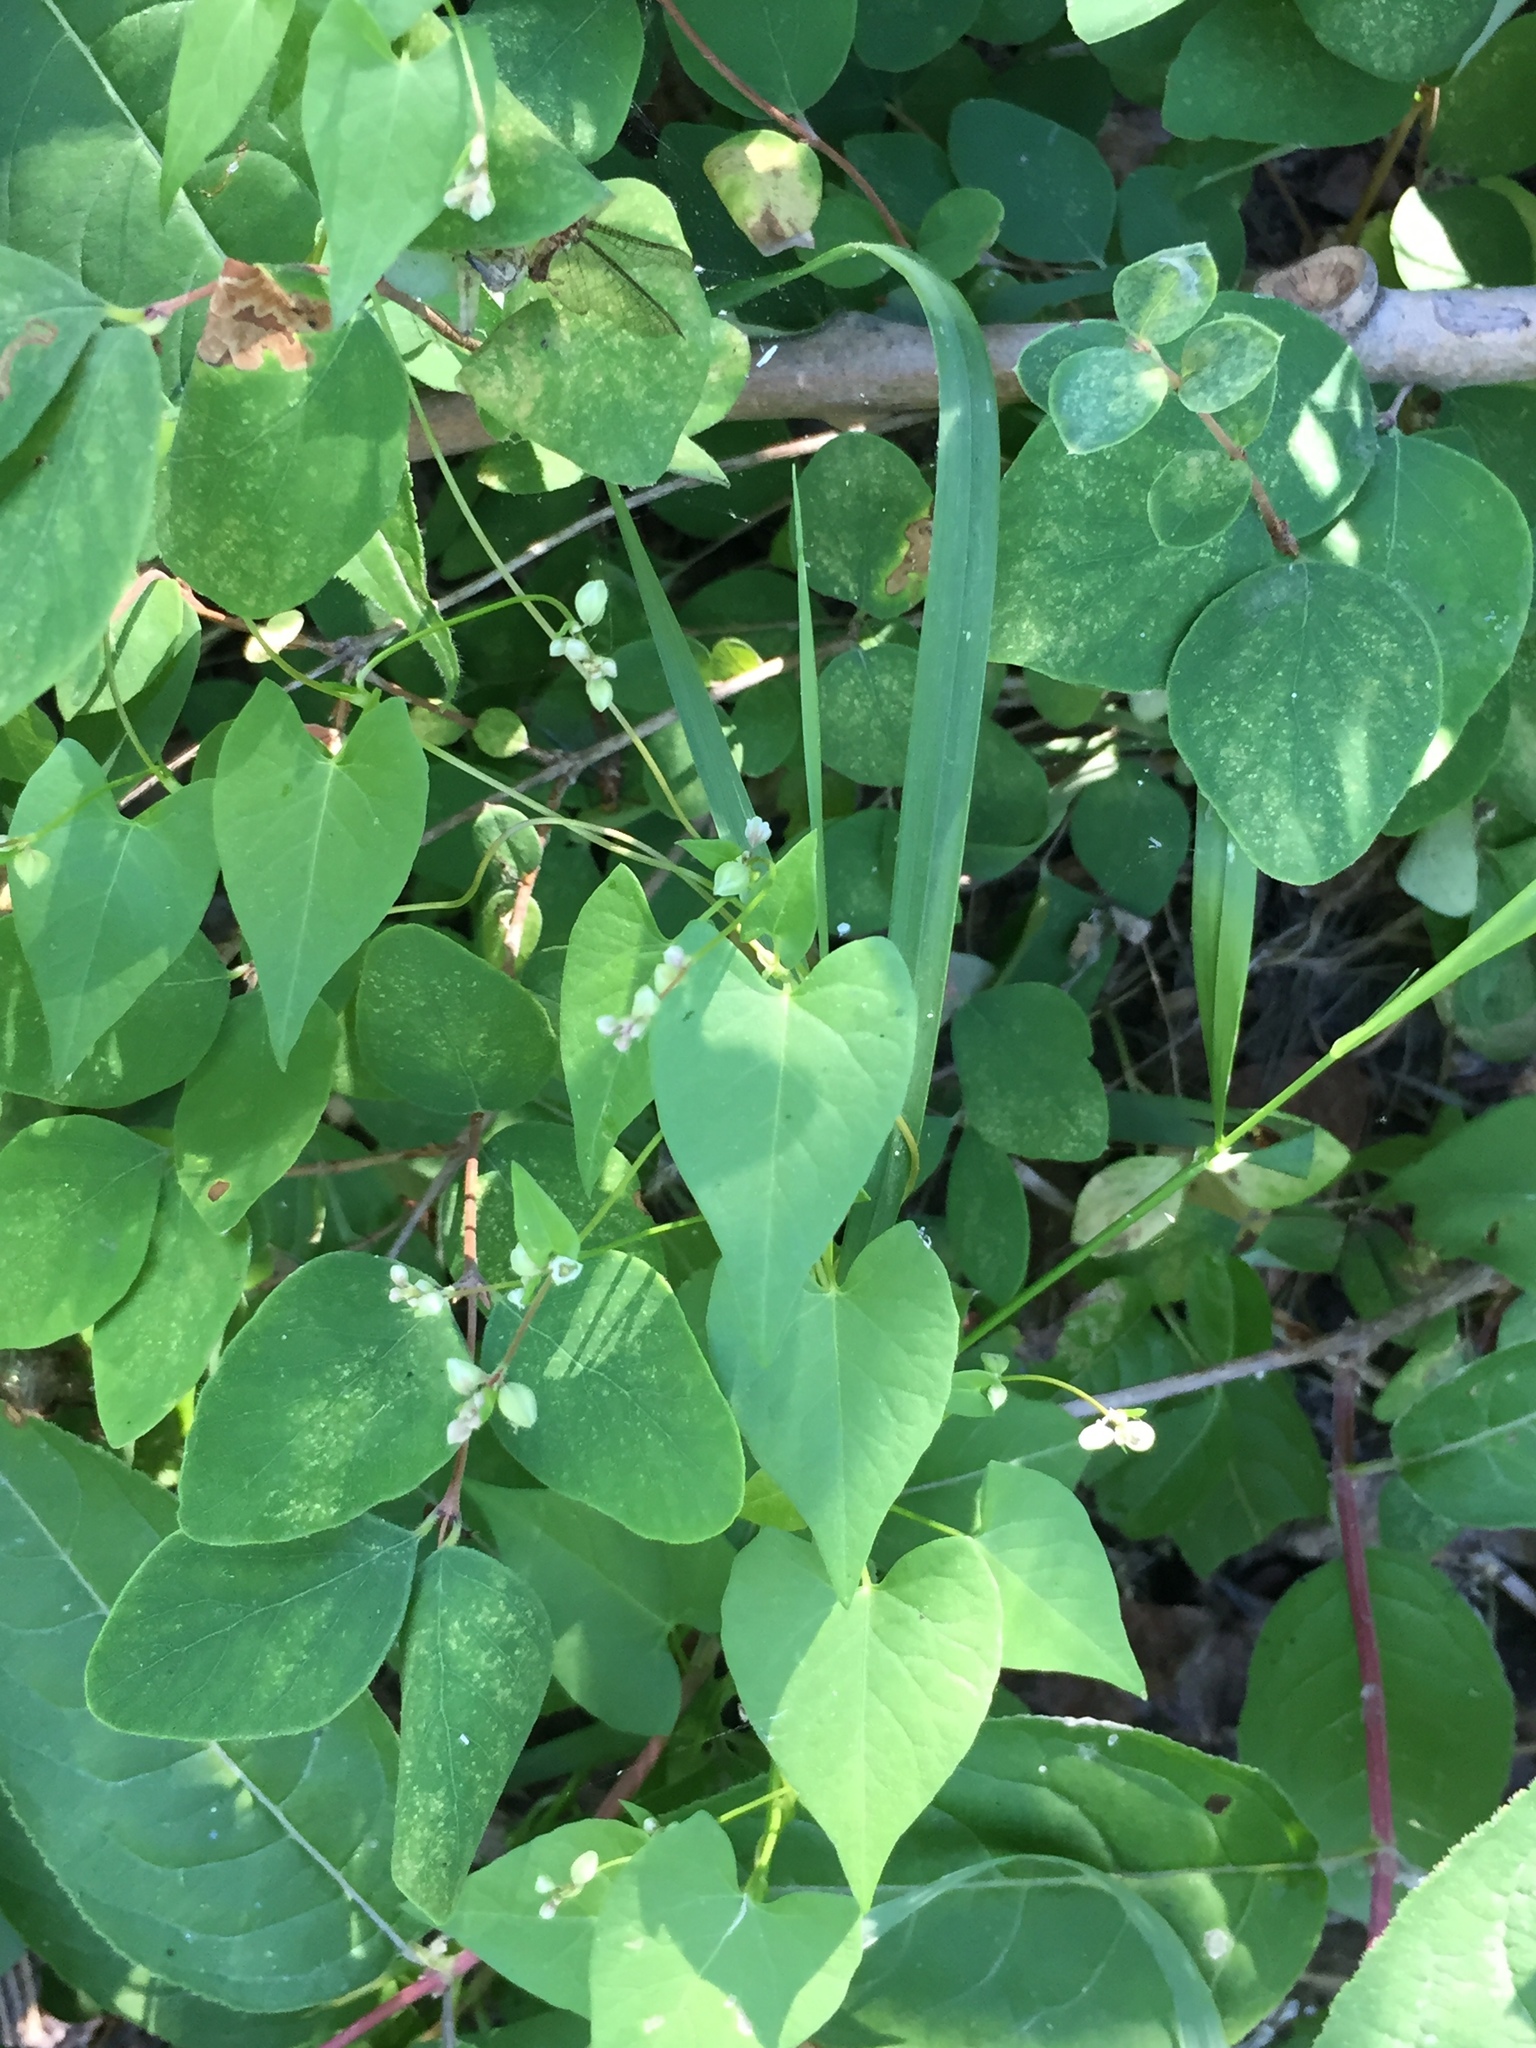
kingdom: Plantae
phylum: Tracheophyta
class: Magnoliopsida
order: Caryophyllales
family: Polygonaceae
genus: Fallopia
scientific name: Fallopia convolvulus
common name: Black bindweed
